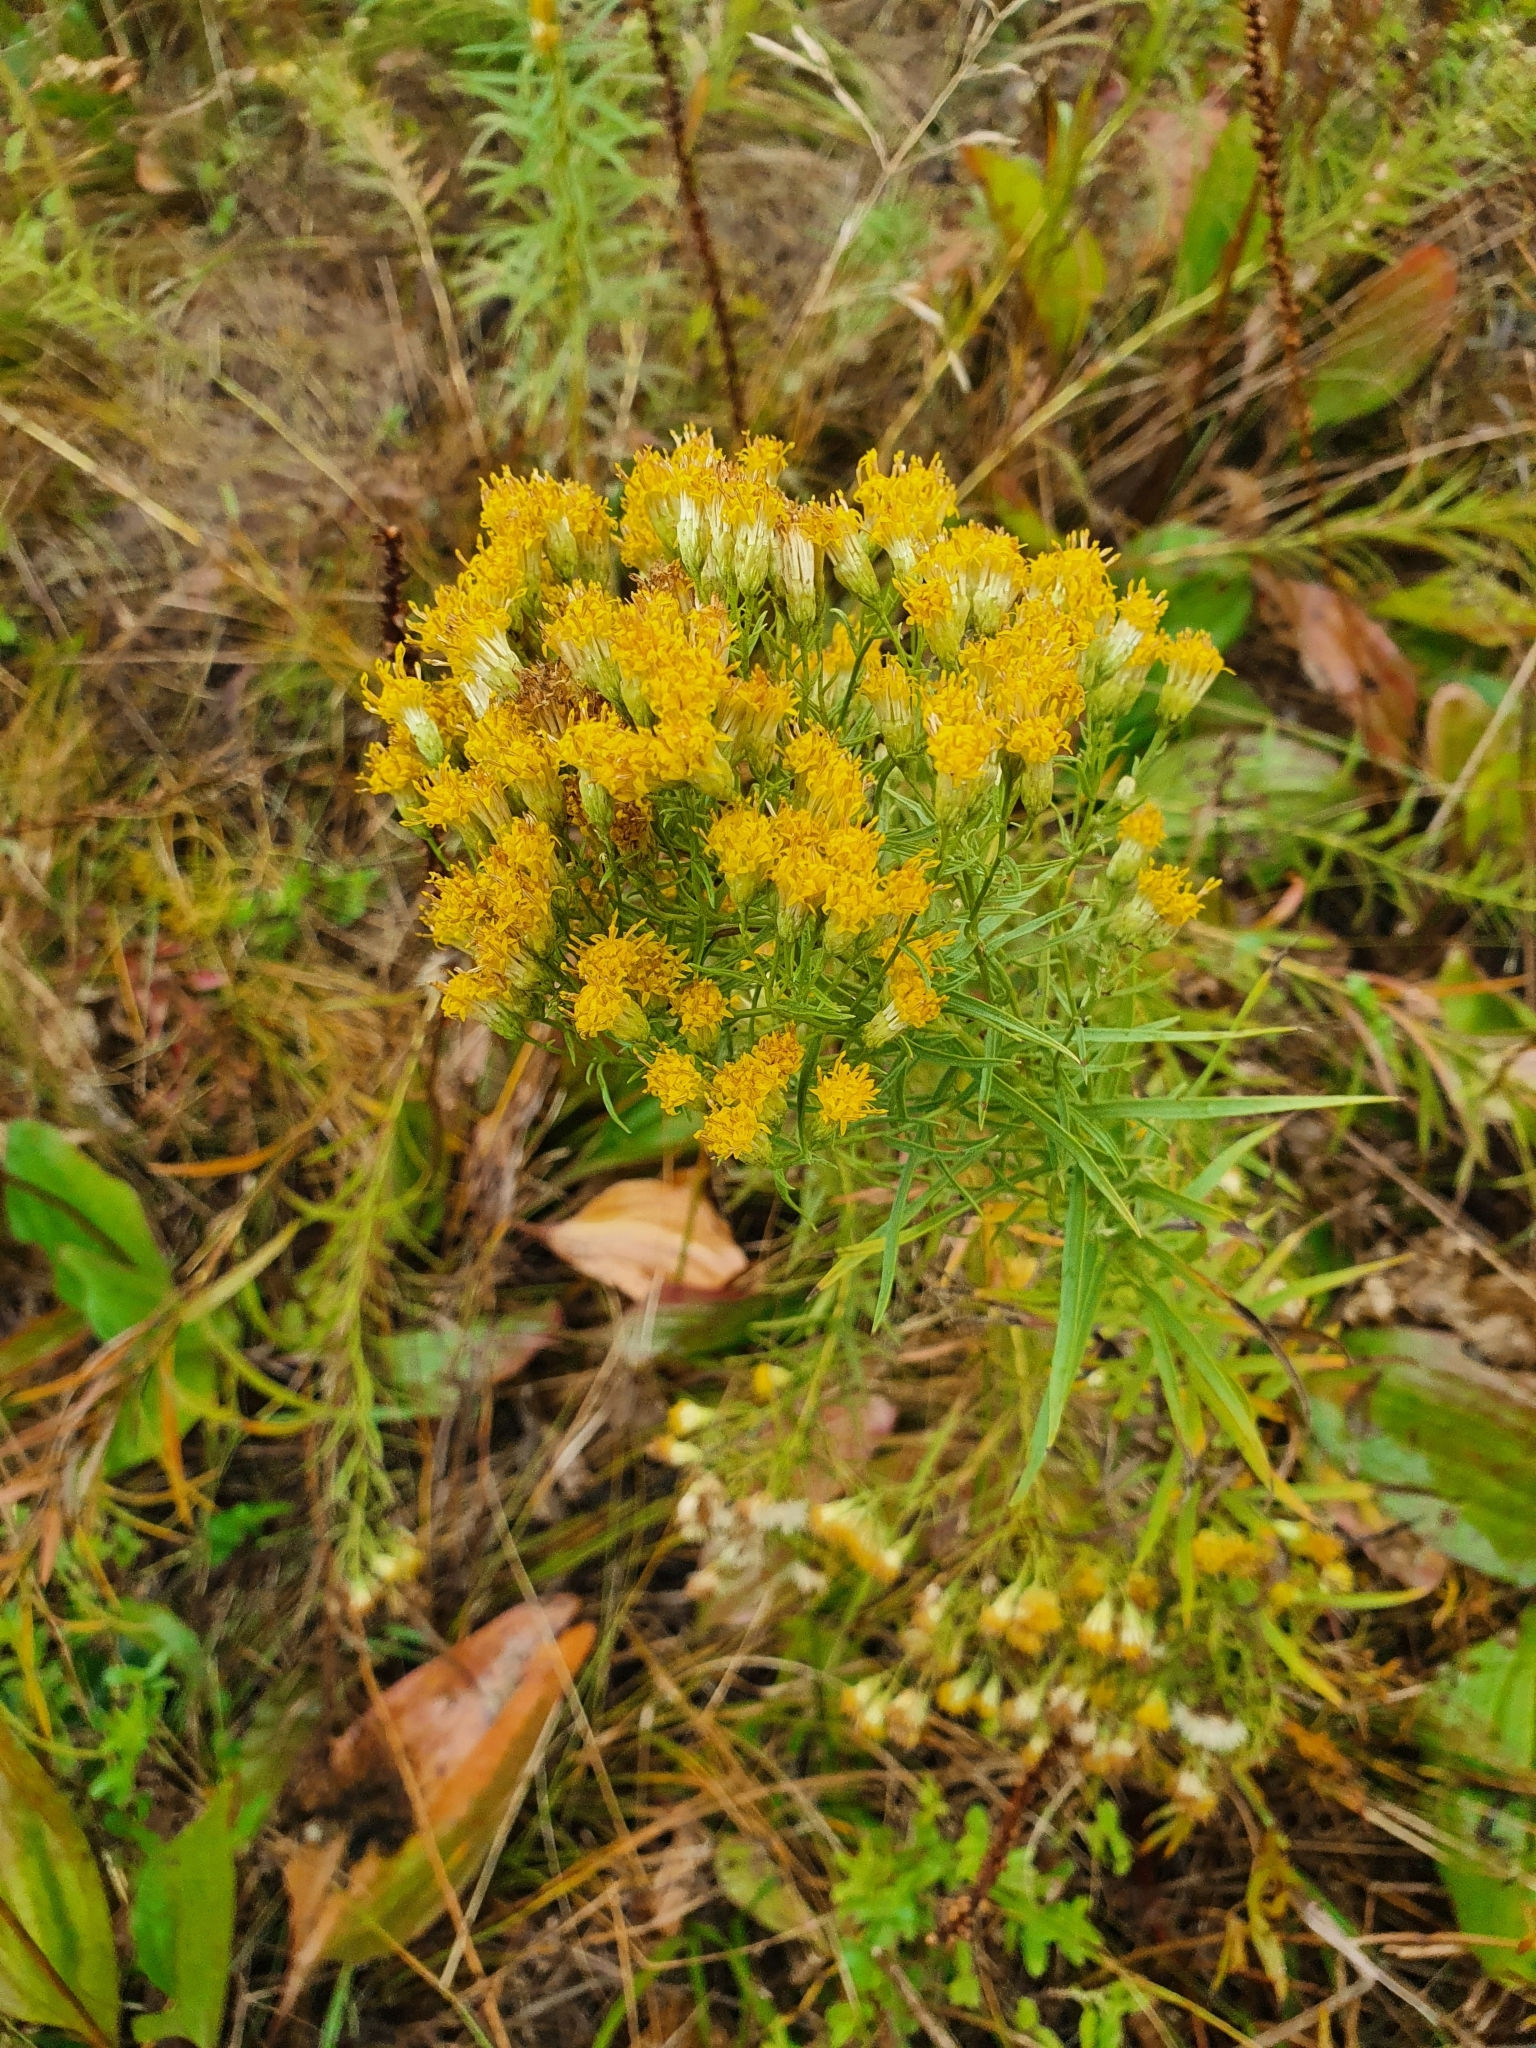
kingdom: Plantae
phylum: Tracheophyta
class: Magnoliopsida
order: Asterales
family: Asteraceae
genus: Galatella
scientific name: Galatella biflora
